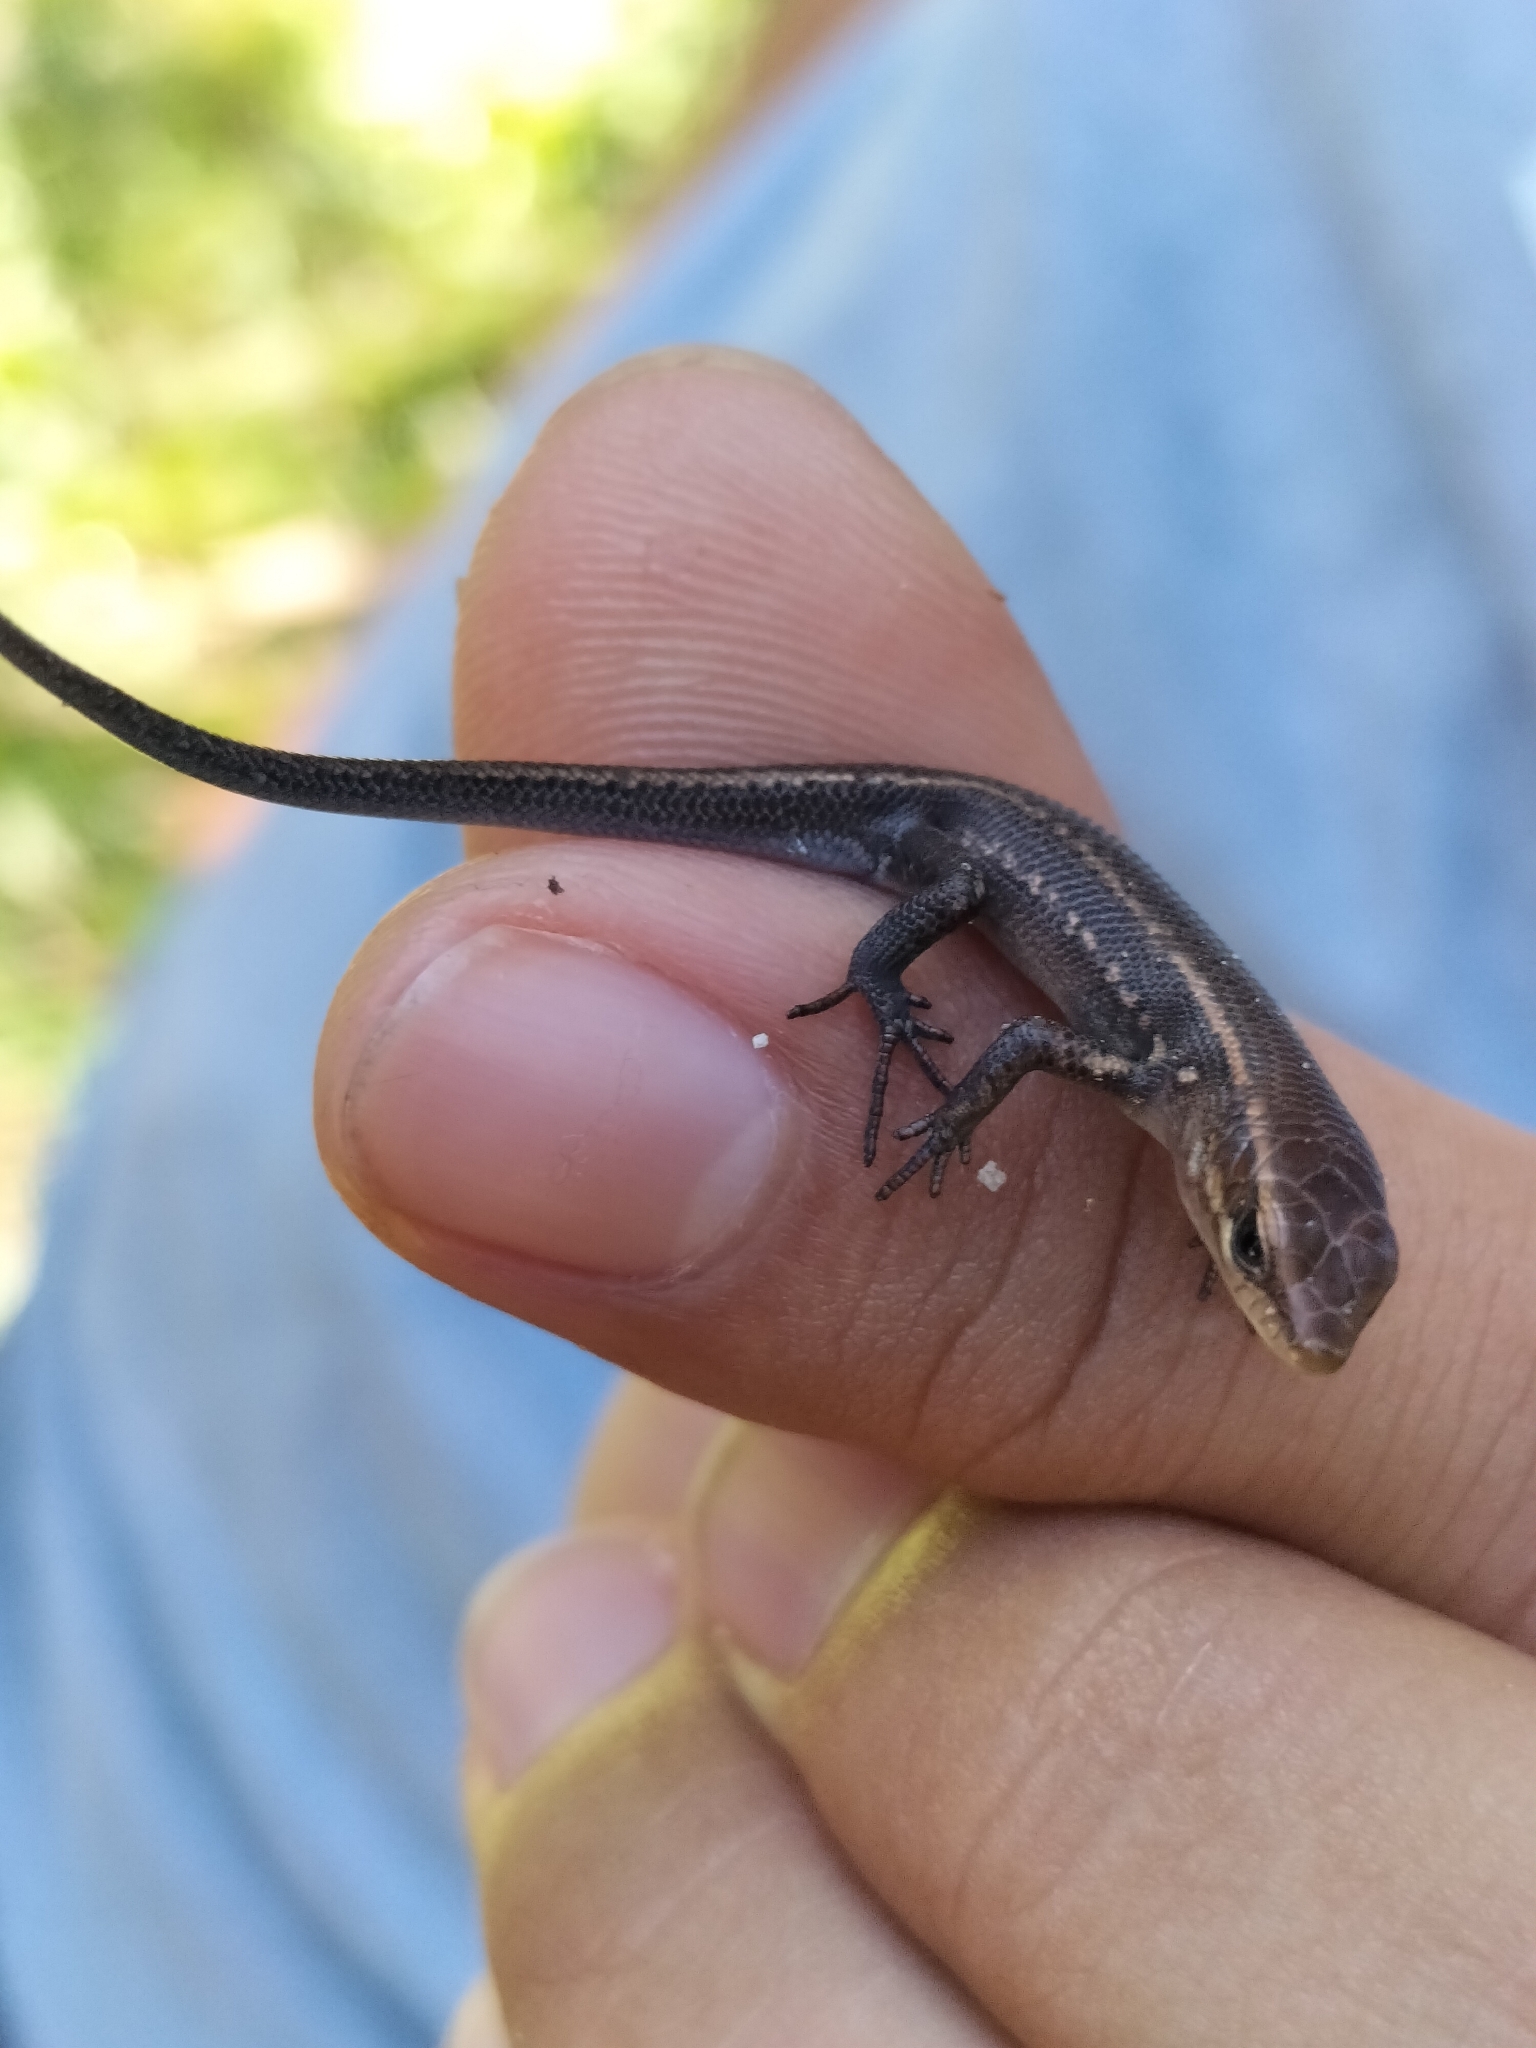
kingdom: Animalia
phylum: Chordata
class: Squamata
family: Scincidae
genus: Carlia
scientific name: Carlia crypta
